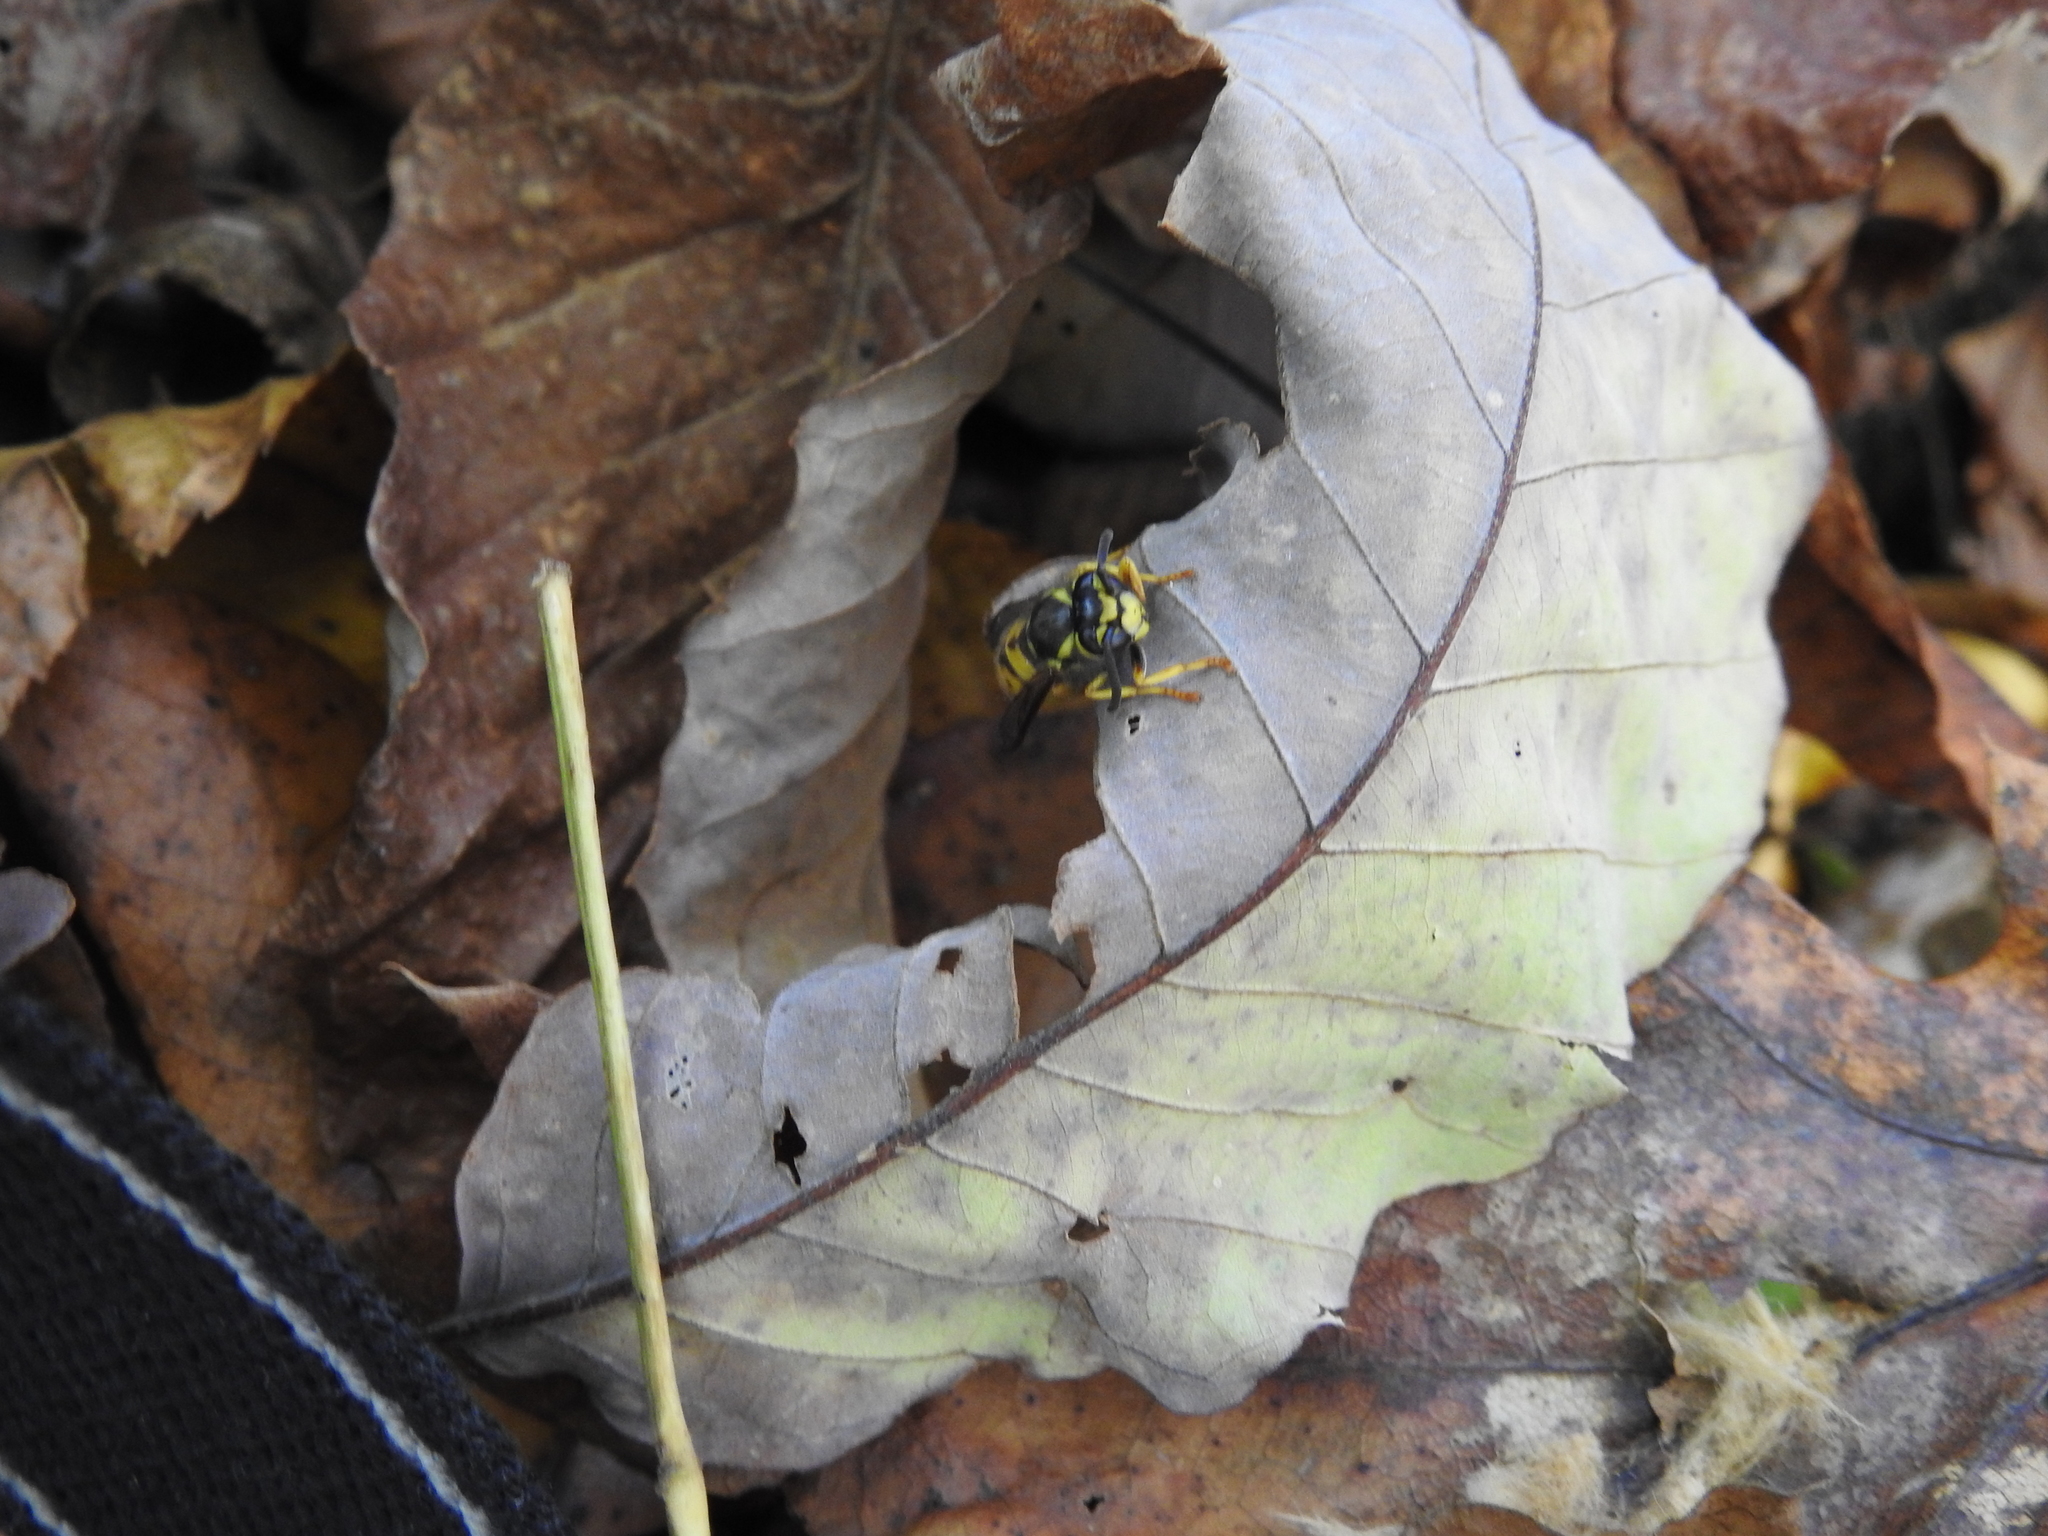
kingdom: Animalia
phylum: Arthropoda
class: Insecta
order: Hymenoptera
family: Vespidae
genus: Vespula
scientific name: Vespula germanica
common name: German wasp
